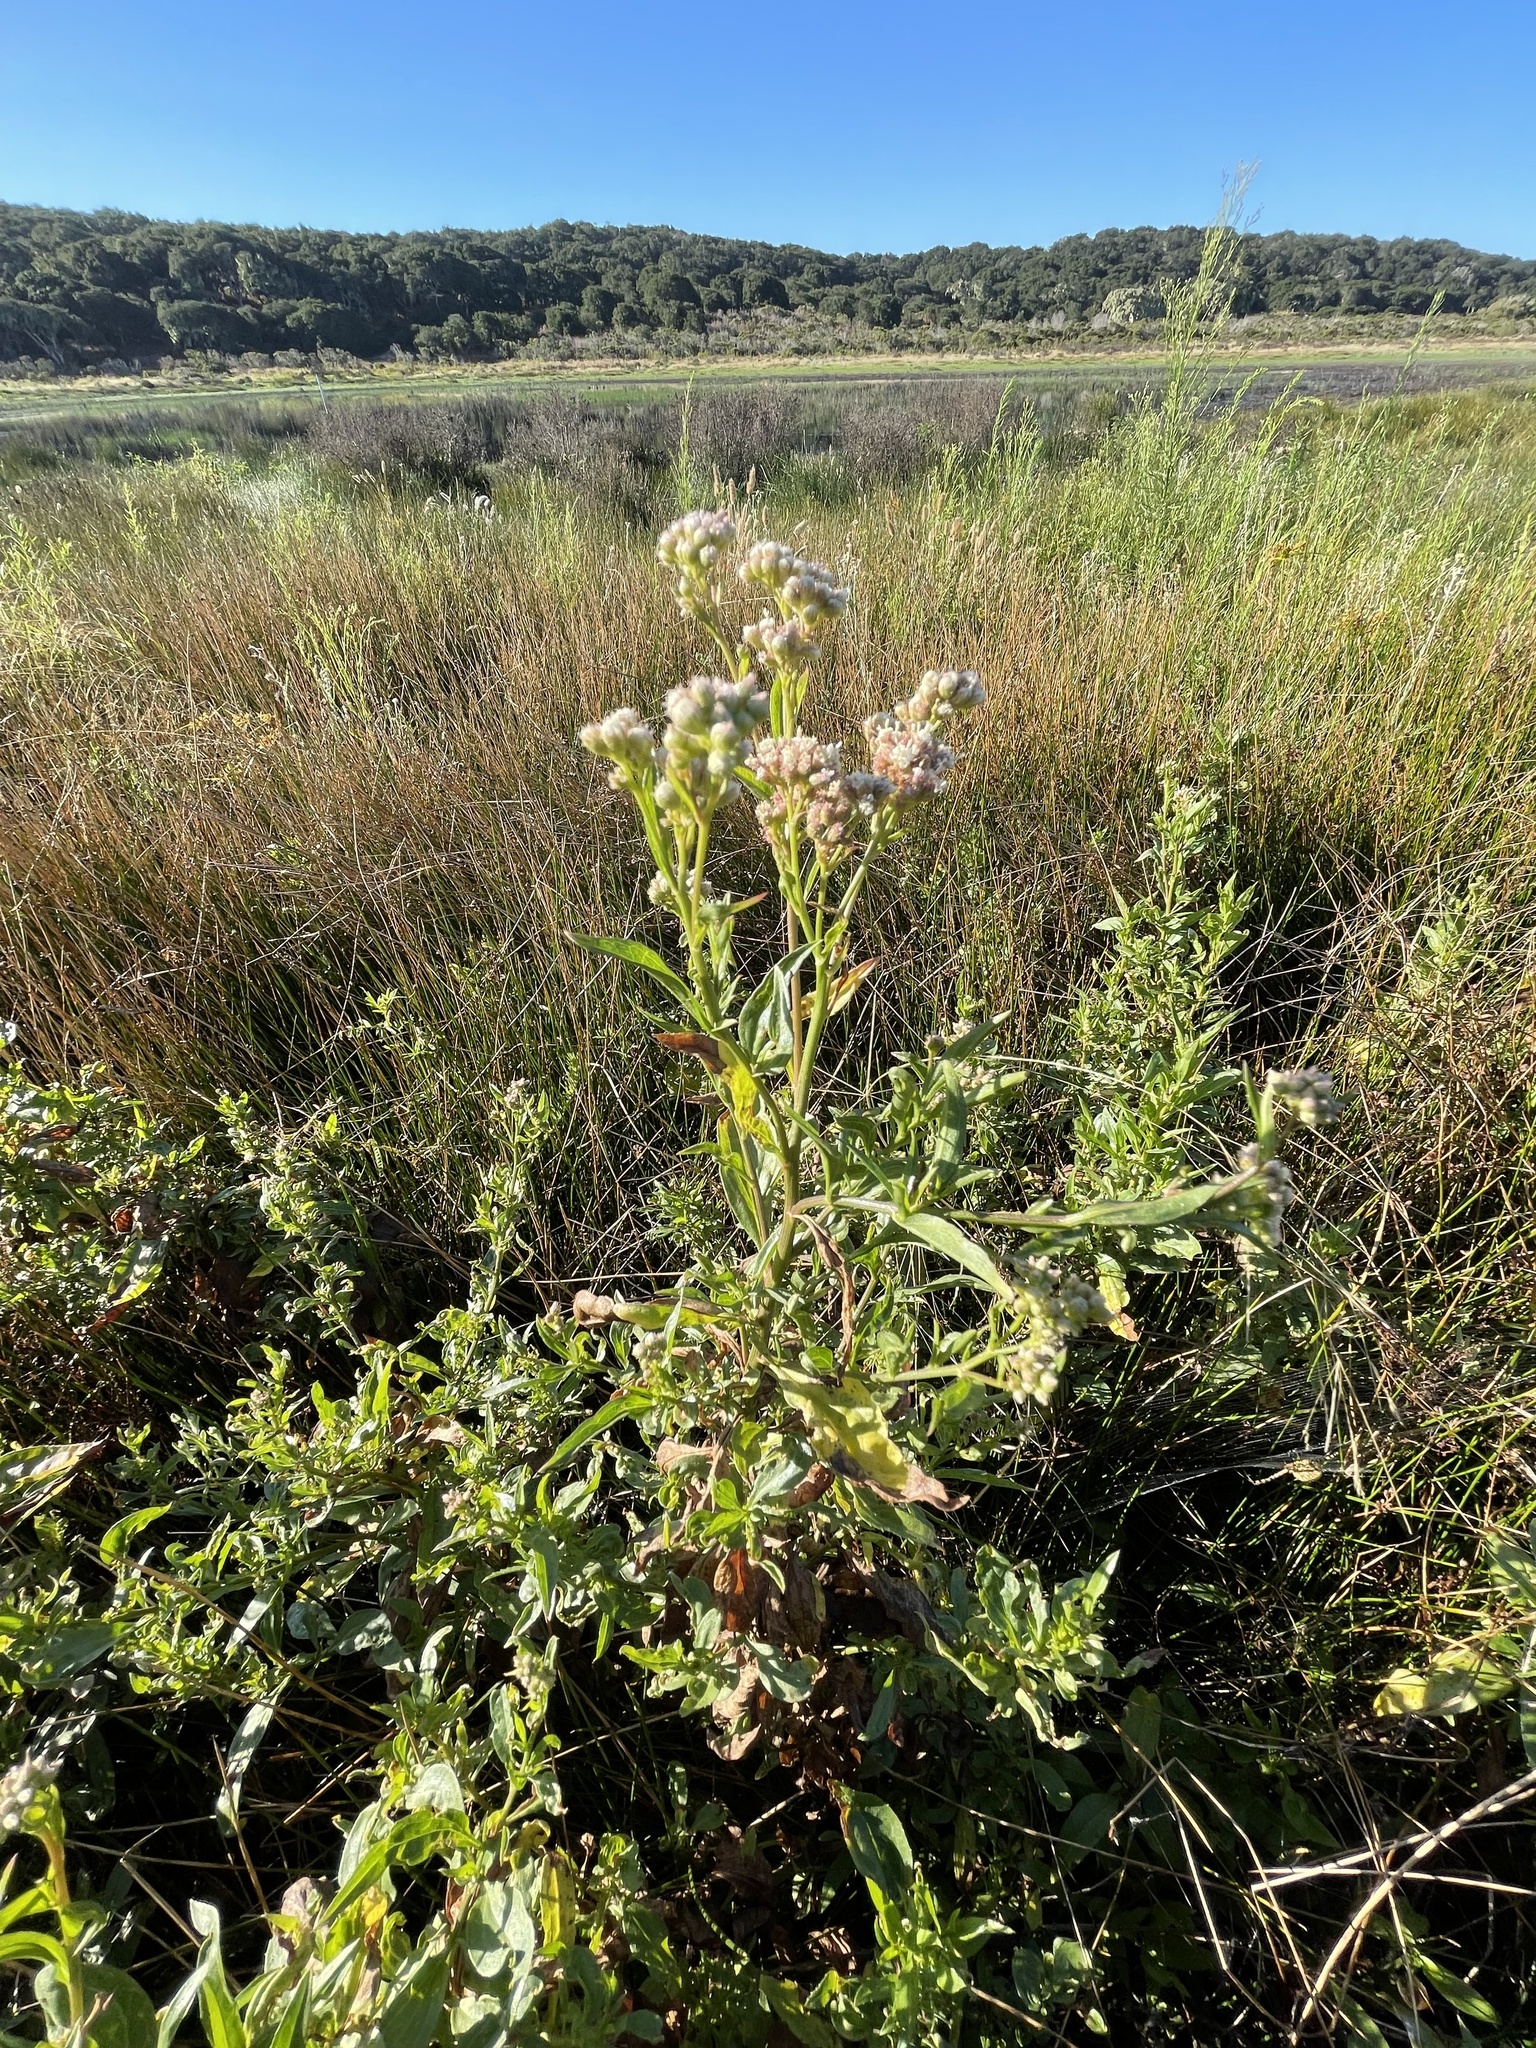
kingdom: Plantae
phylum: Tracheophyta
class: Magnoliopsida
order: Asterales
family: Asteraceae
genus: Baccharis
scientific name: Baccharis glutinosa
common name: Saltmarsh baccharis
